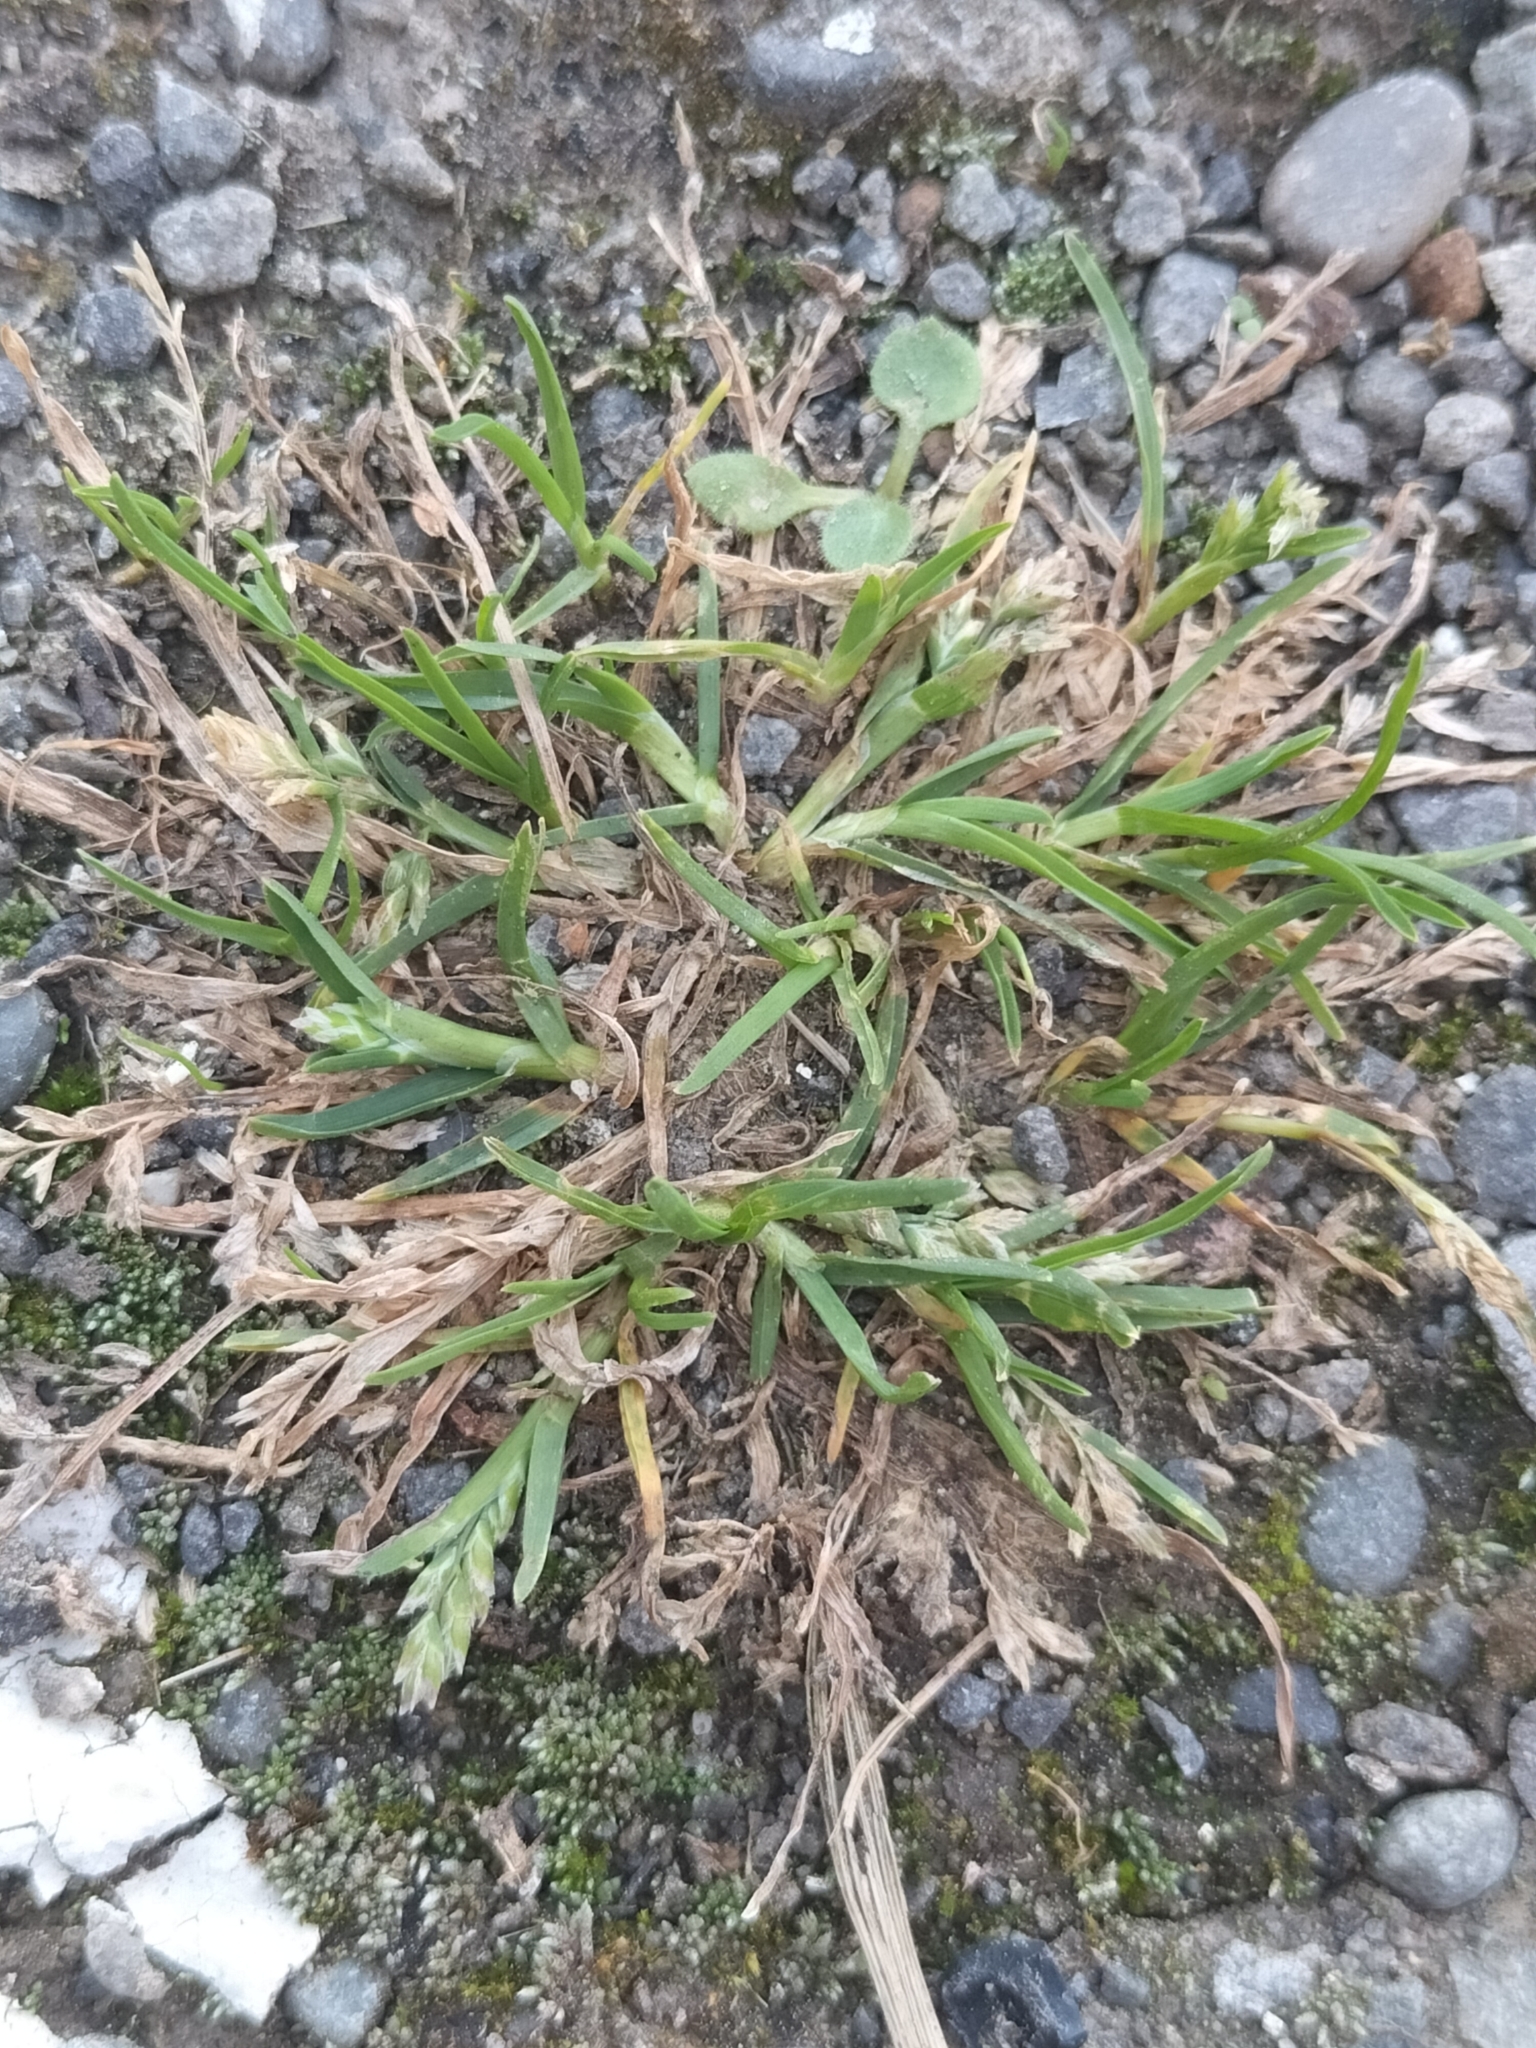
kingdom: Plantae
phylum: Tracheophyta
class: Liliopsida
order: Poales
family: Poaceae
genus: Poa
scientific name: Poa annua
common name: Annual bluegrass
